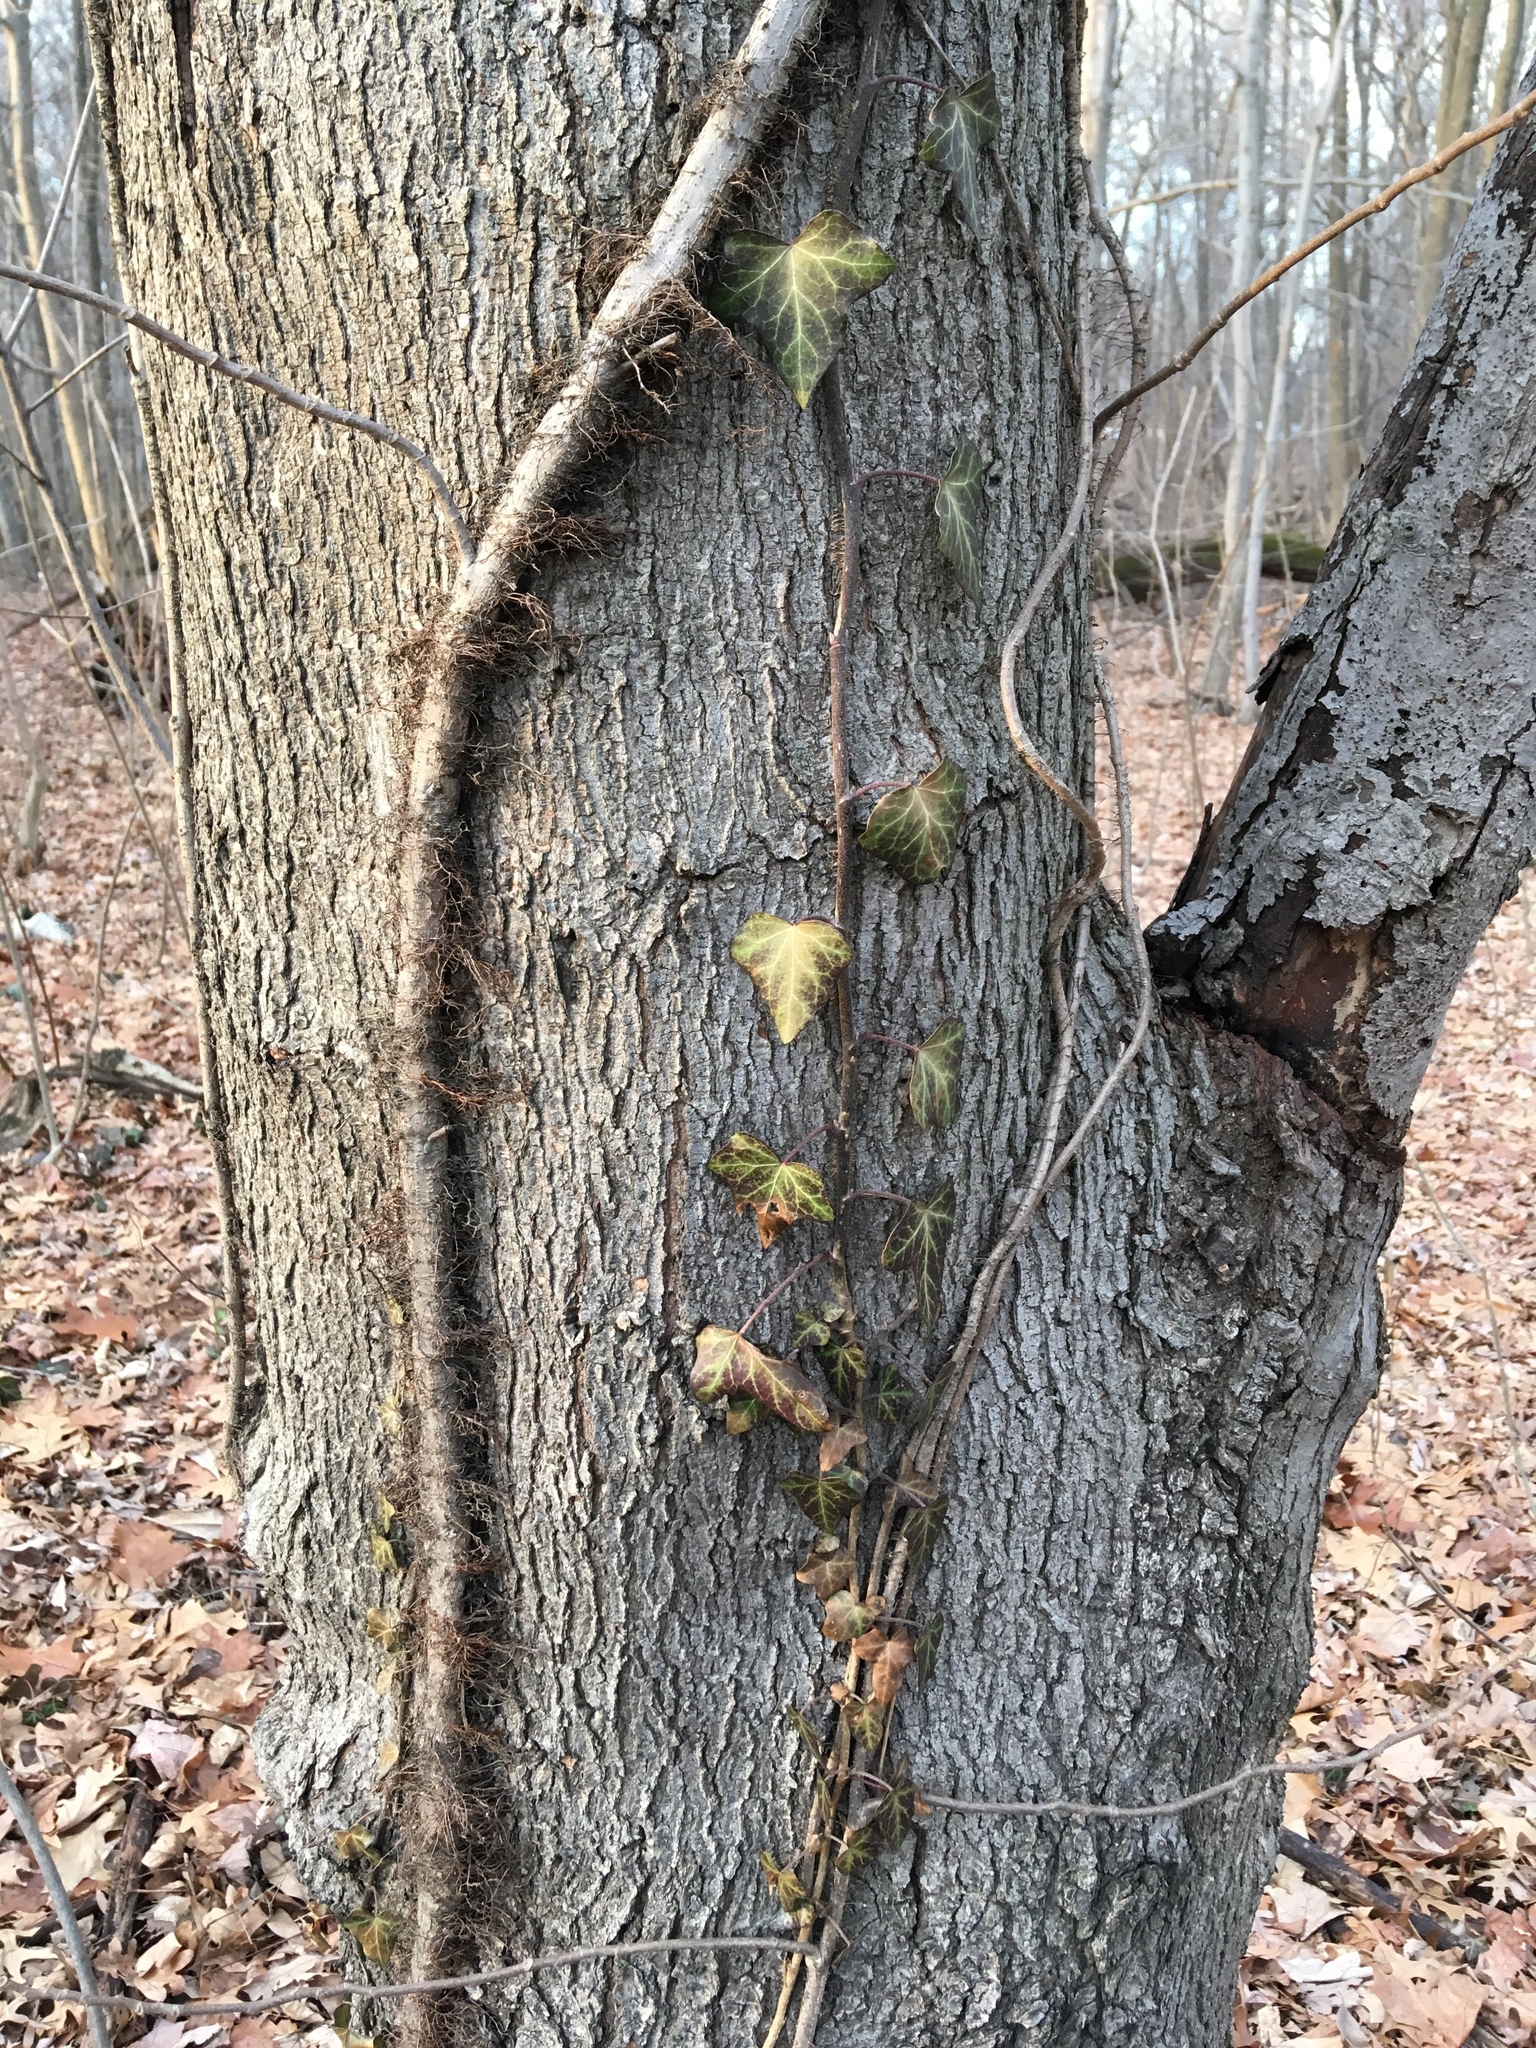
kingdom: Plantae
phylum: Tracheophyta
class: Magnoliopsida
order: Apiales
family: Araliaceae
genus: Hedera
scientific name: Hedera helix
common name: Ivy
